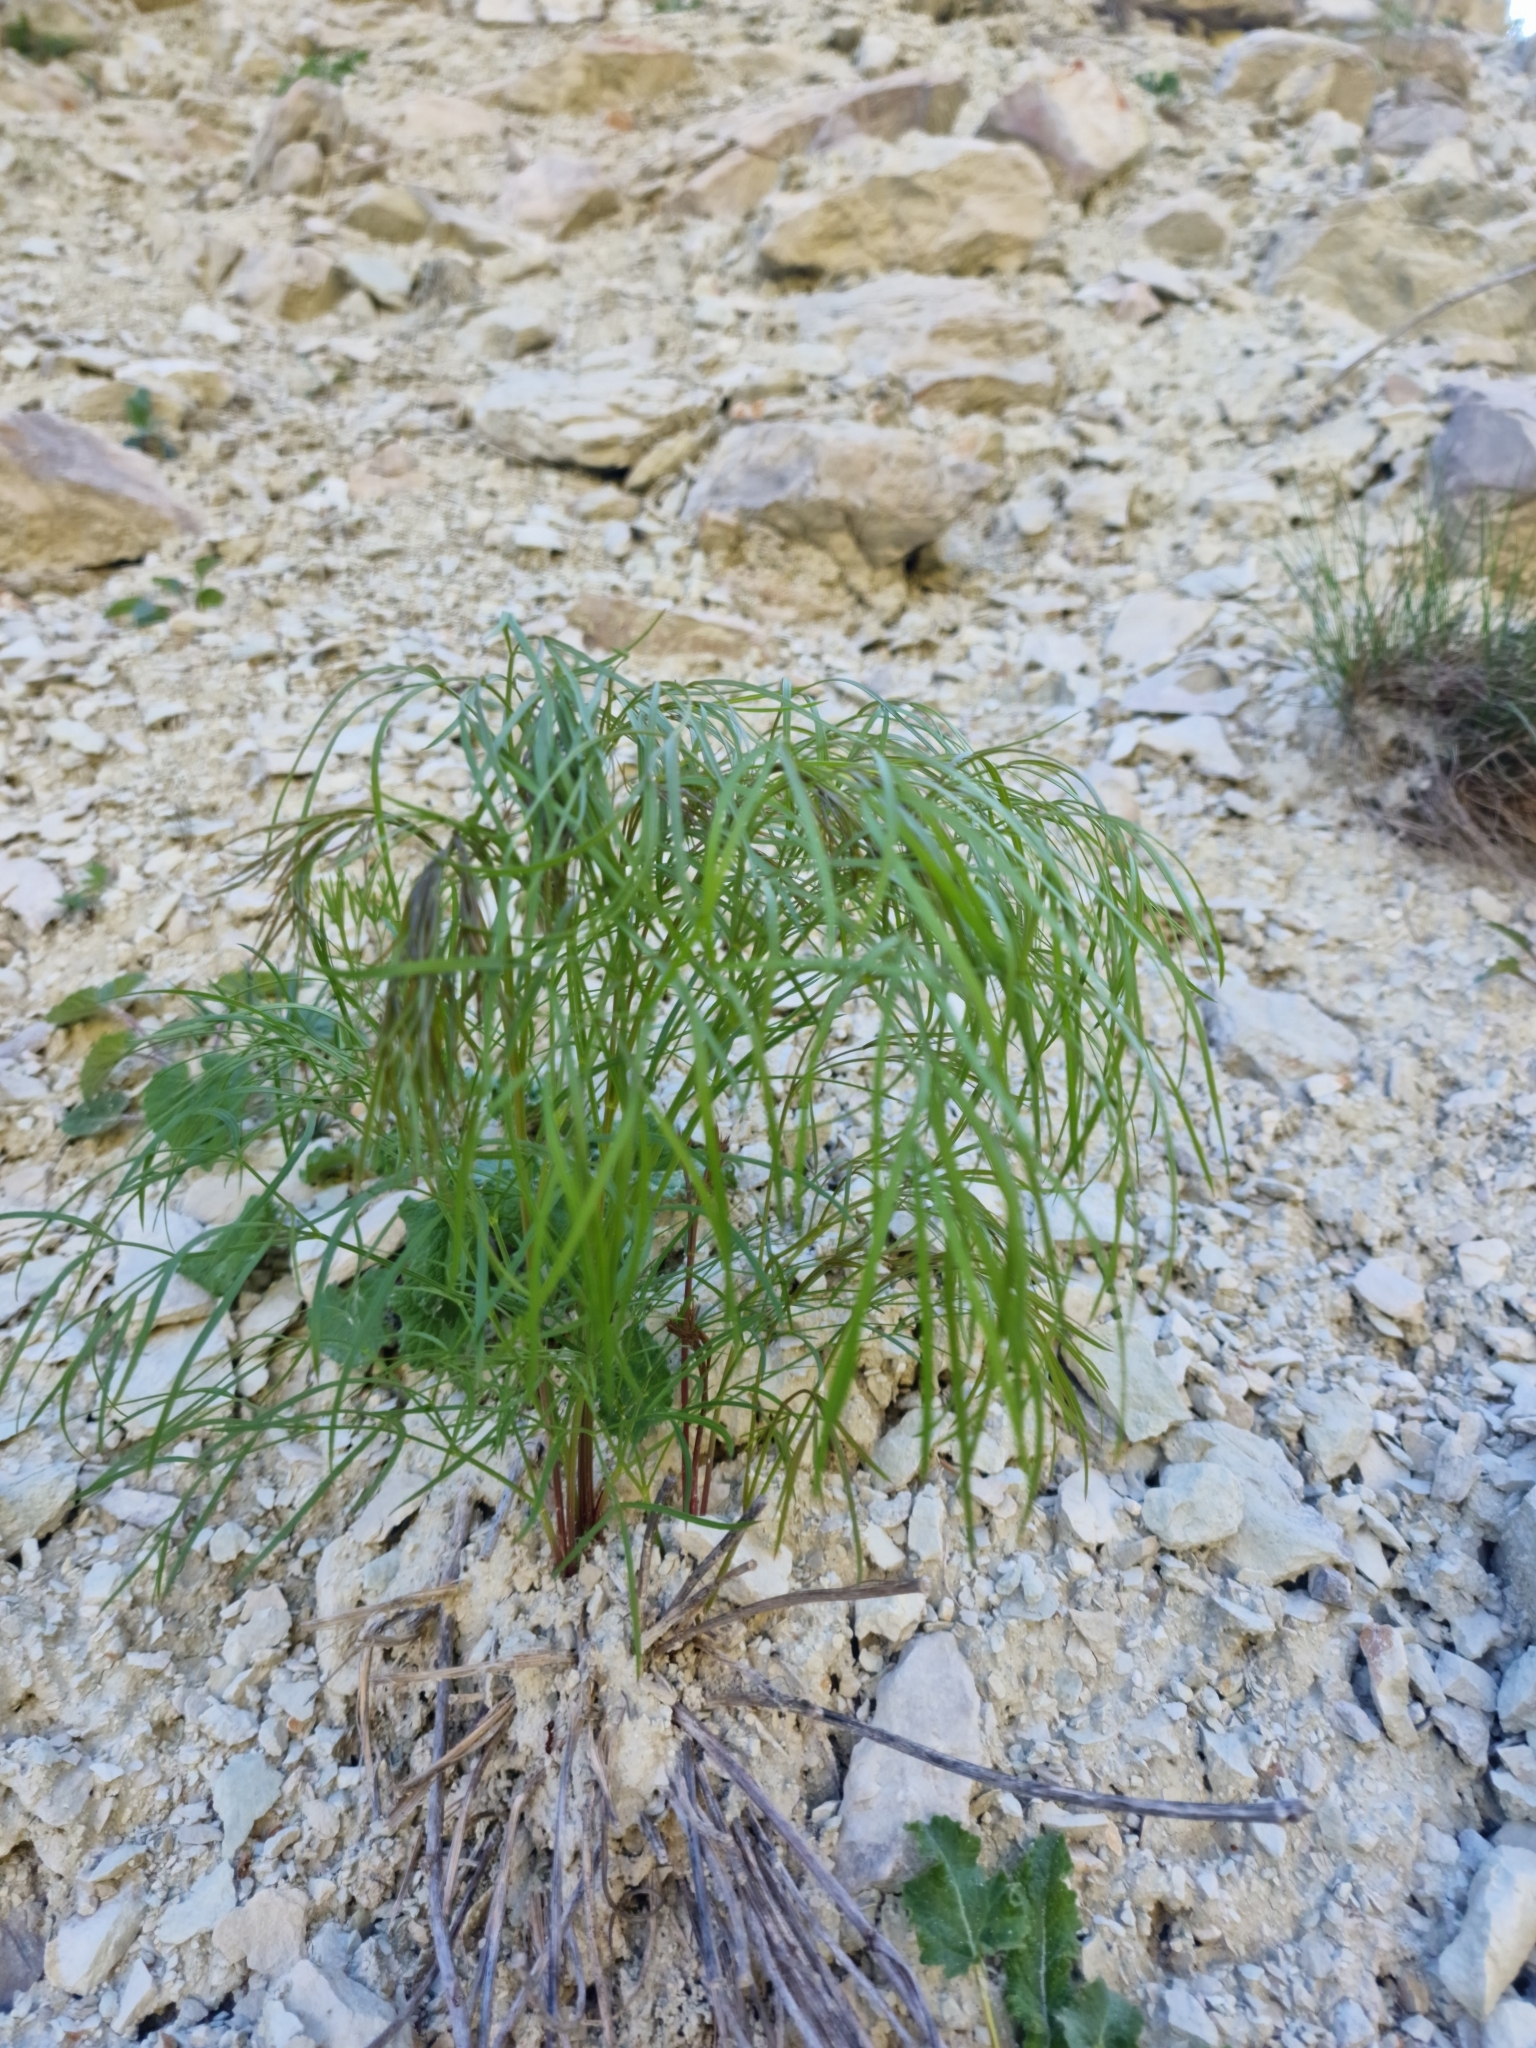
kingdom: Plantae
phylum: Tracheophyta
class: Magnoliopsida
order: Apiales
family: Apiaceae
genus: Peucedanum
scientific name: Peucedanum ruthenicum
